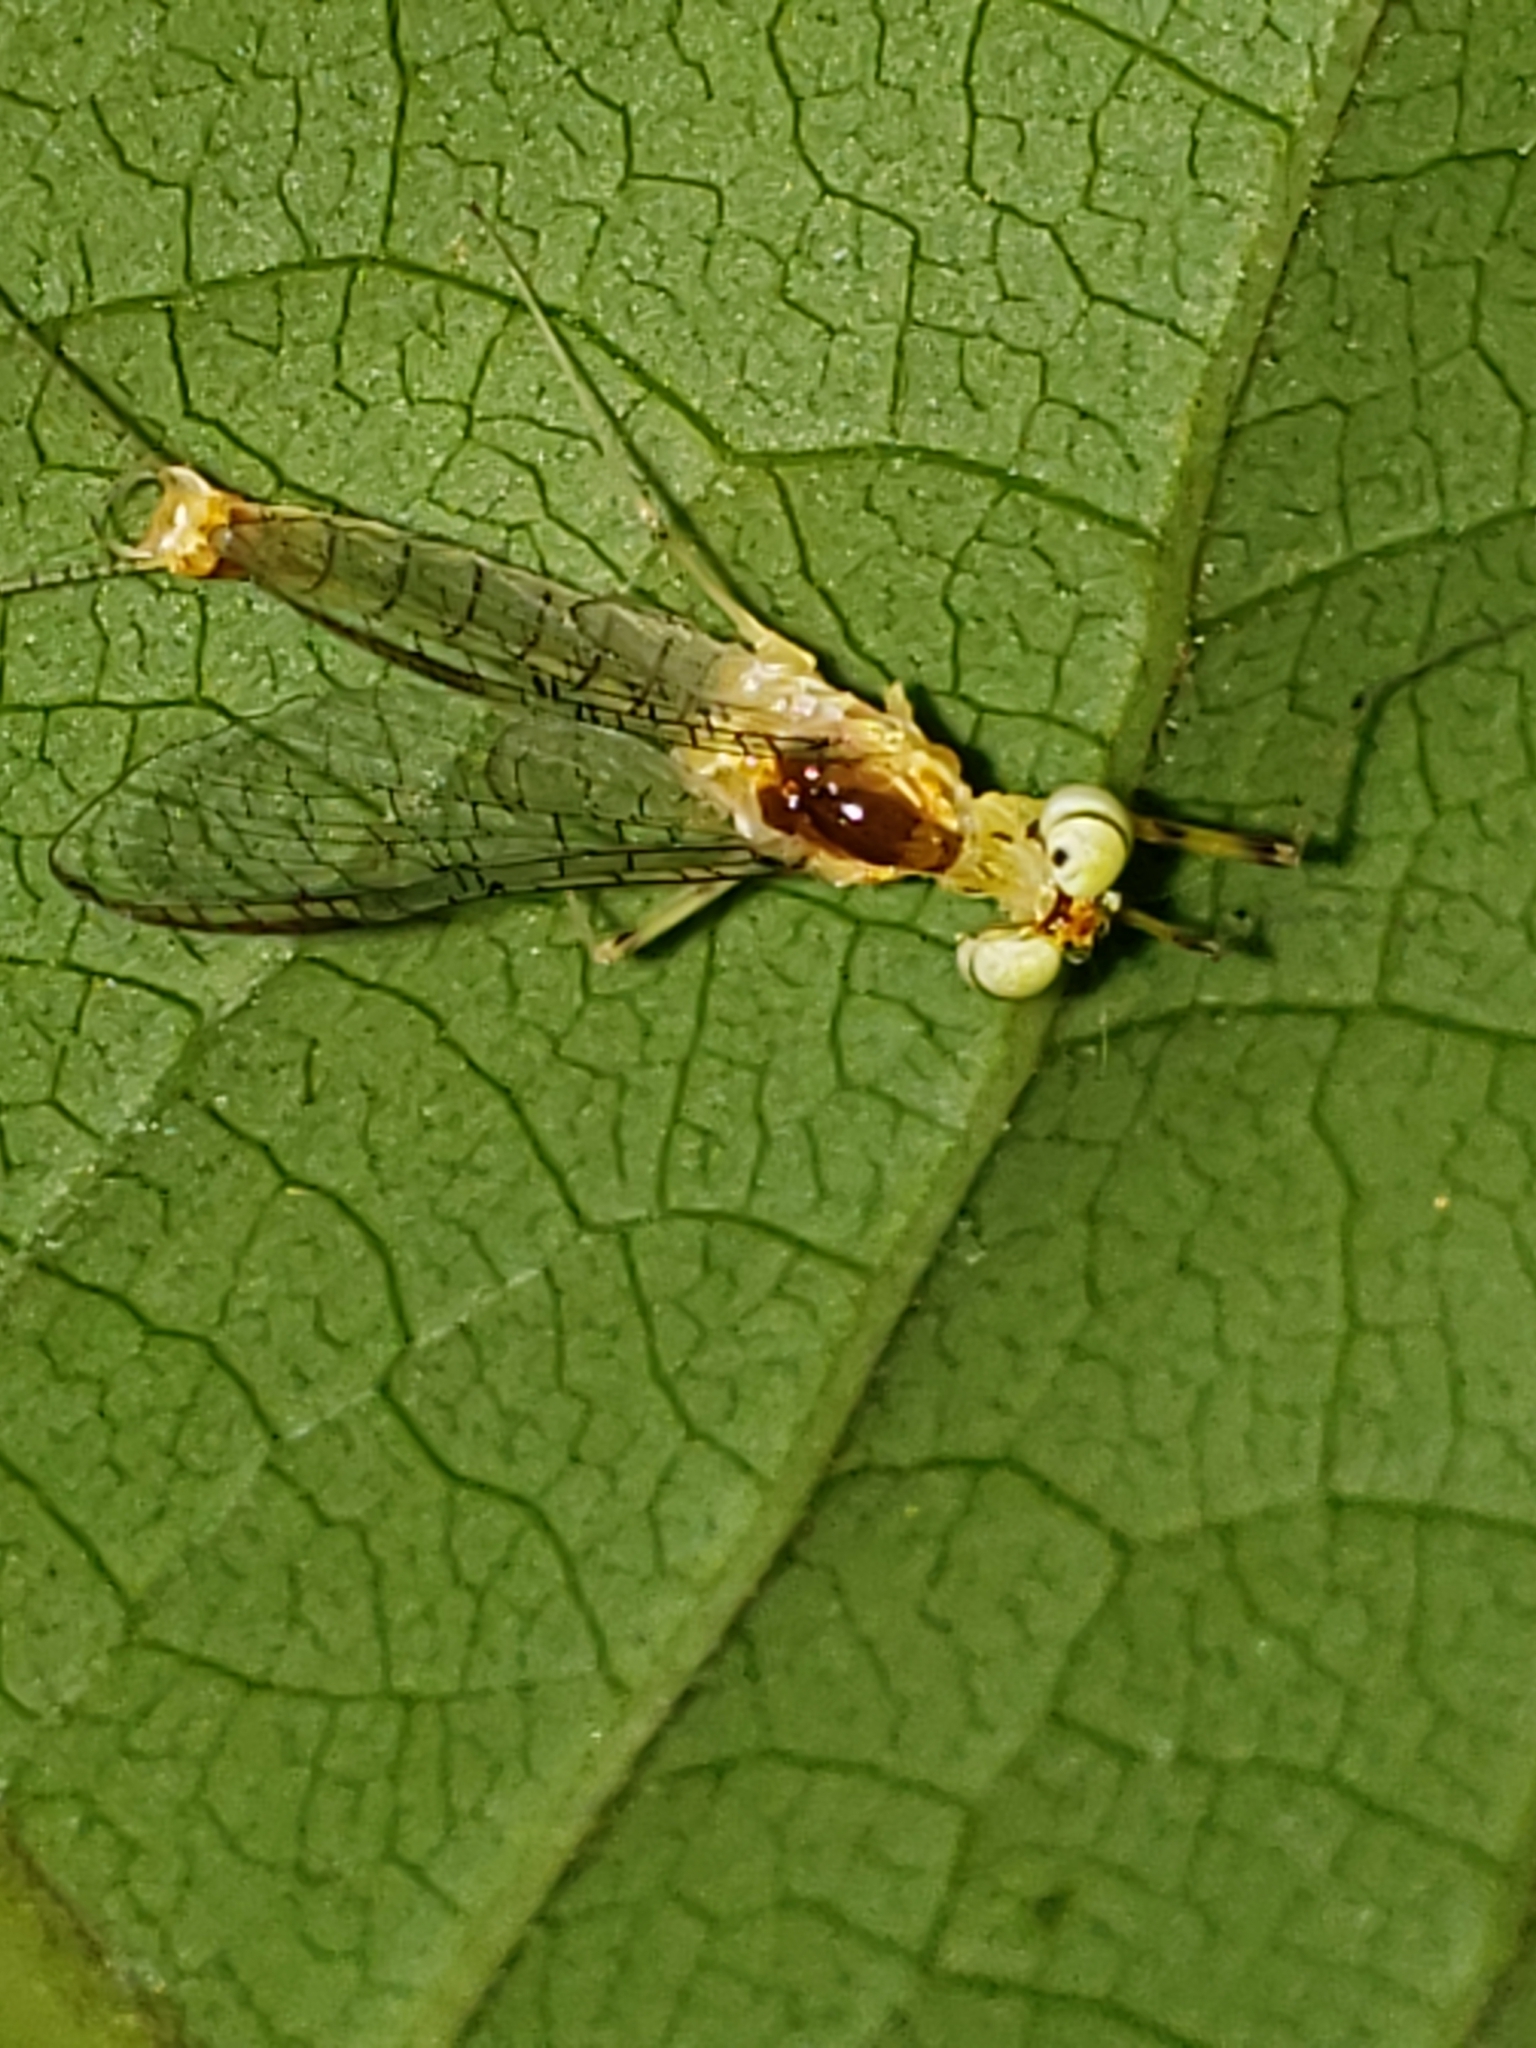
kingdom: Animalia
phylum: Arthropoda
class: Insecta
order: Ephemeroptera
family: Heptageniidae
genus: Stenacron
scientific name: Stenacron interpunctatum
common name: Orange cahill
